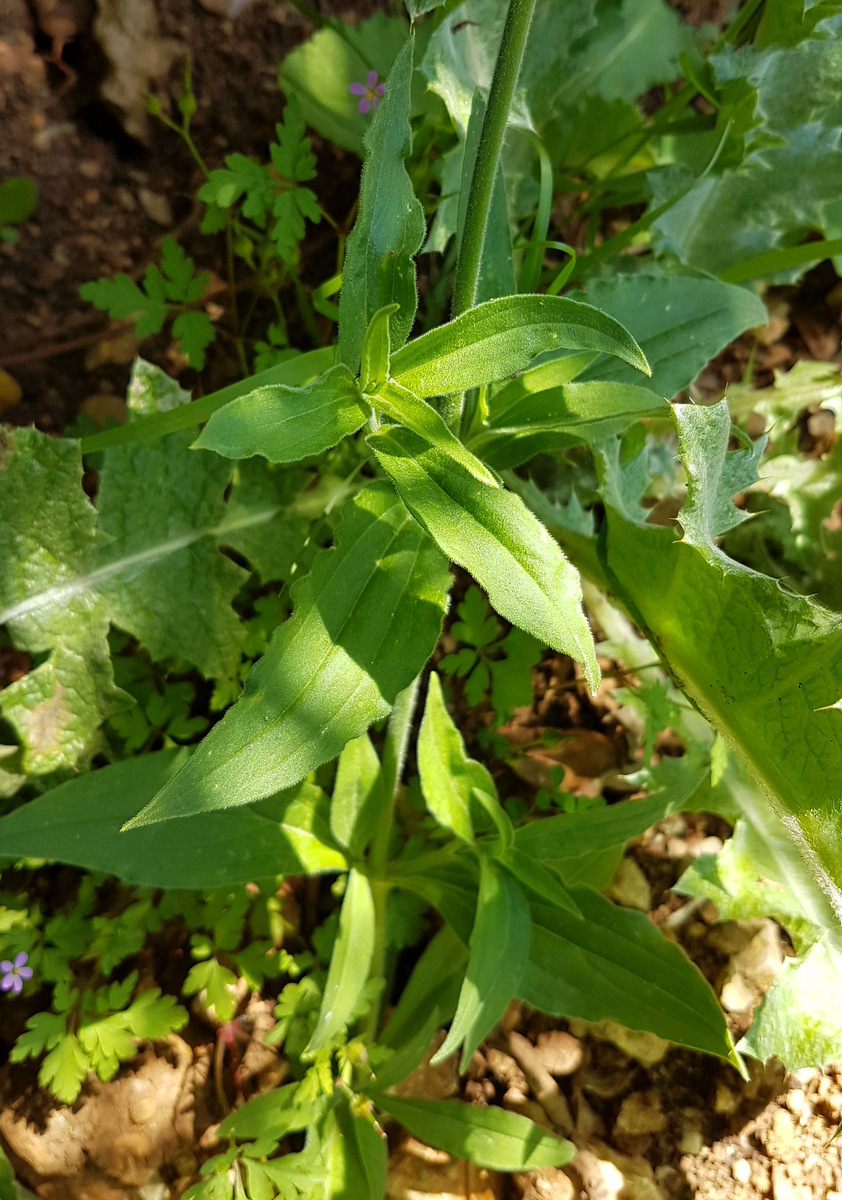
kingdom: Plantae
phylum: Tracheophyta
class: Magnoliopsida
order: Caryophyllales
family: Caryophyllaceae
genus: Silene
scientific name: Silene latifolia
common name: White campion
